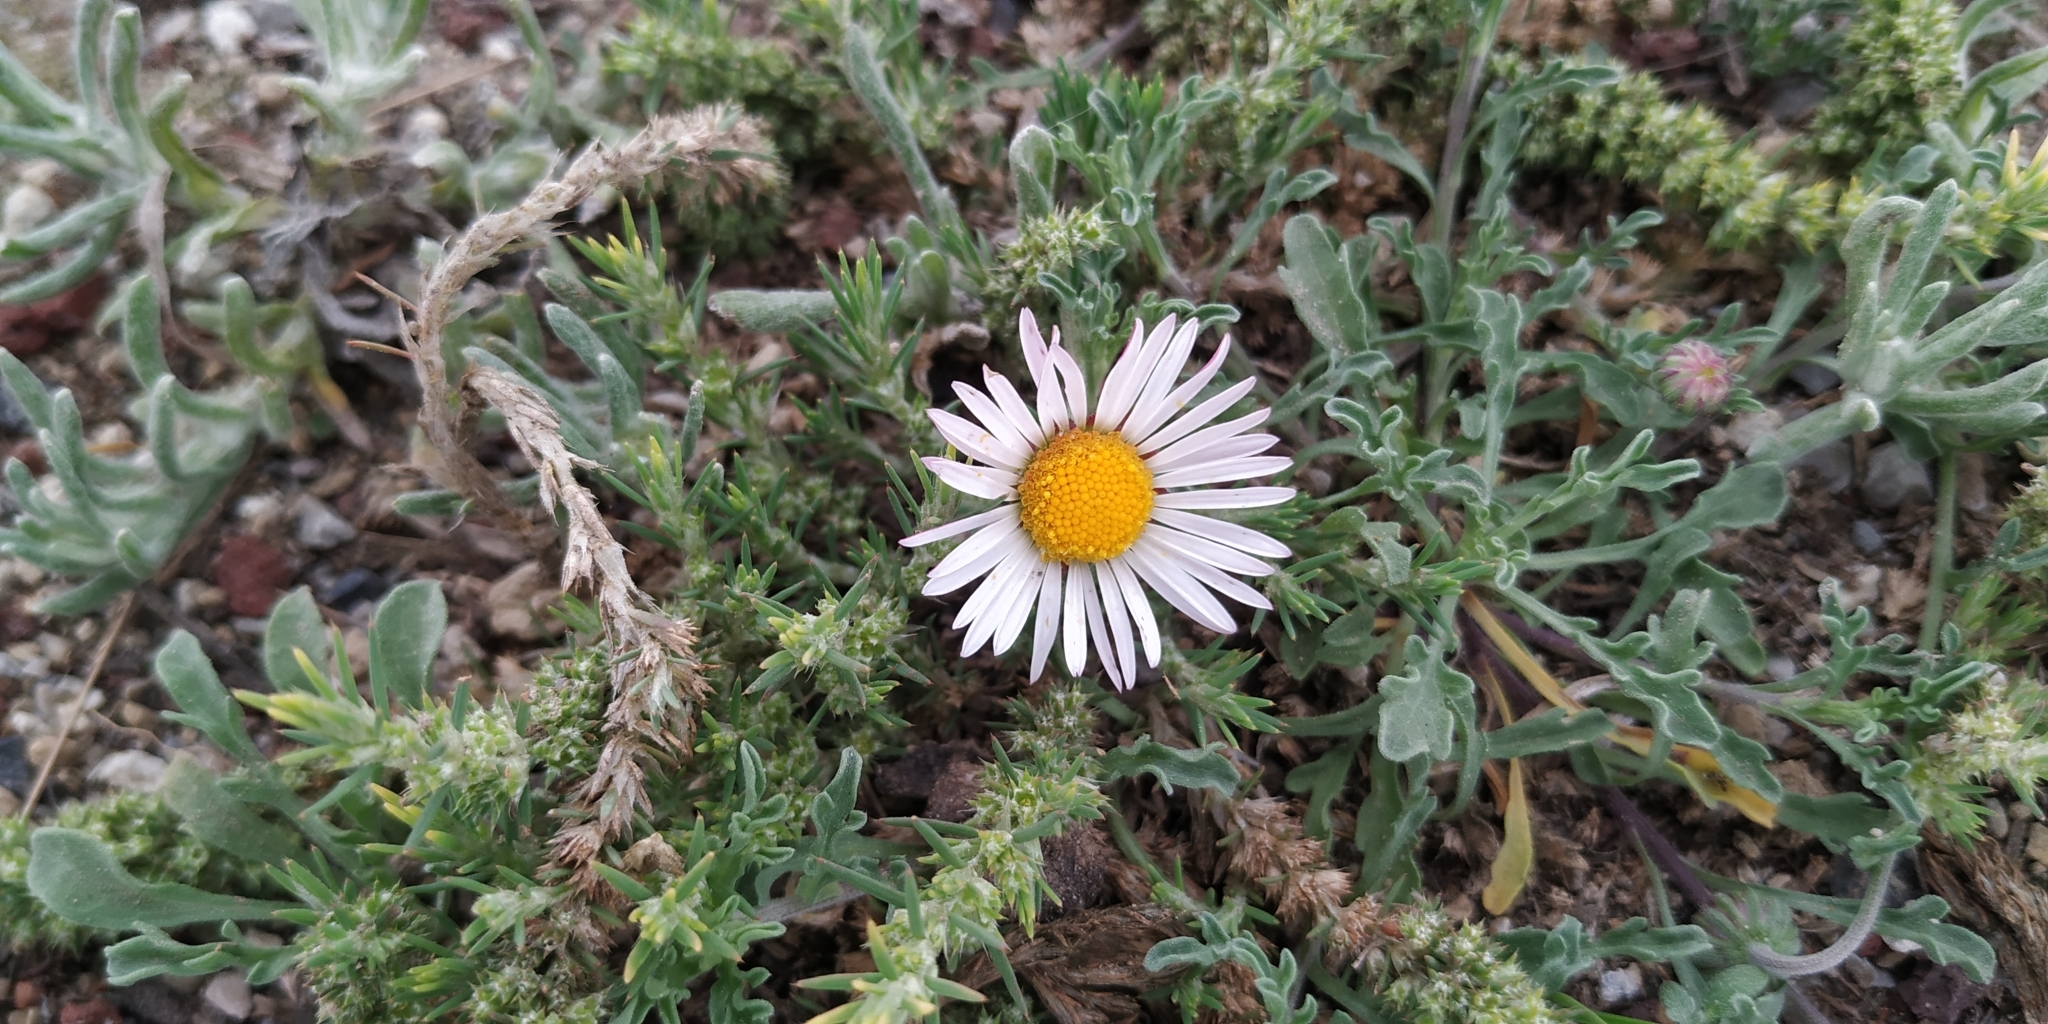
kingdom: Plantae
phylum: Tracheophyta
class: Magnoliopsida
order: Asterales
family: Asteraceae
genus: Aphanostephus
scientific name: Aphanostephus ramosissimus
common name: Plains lazy daisy
